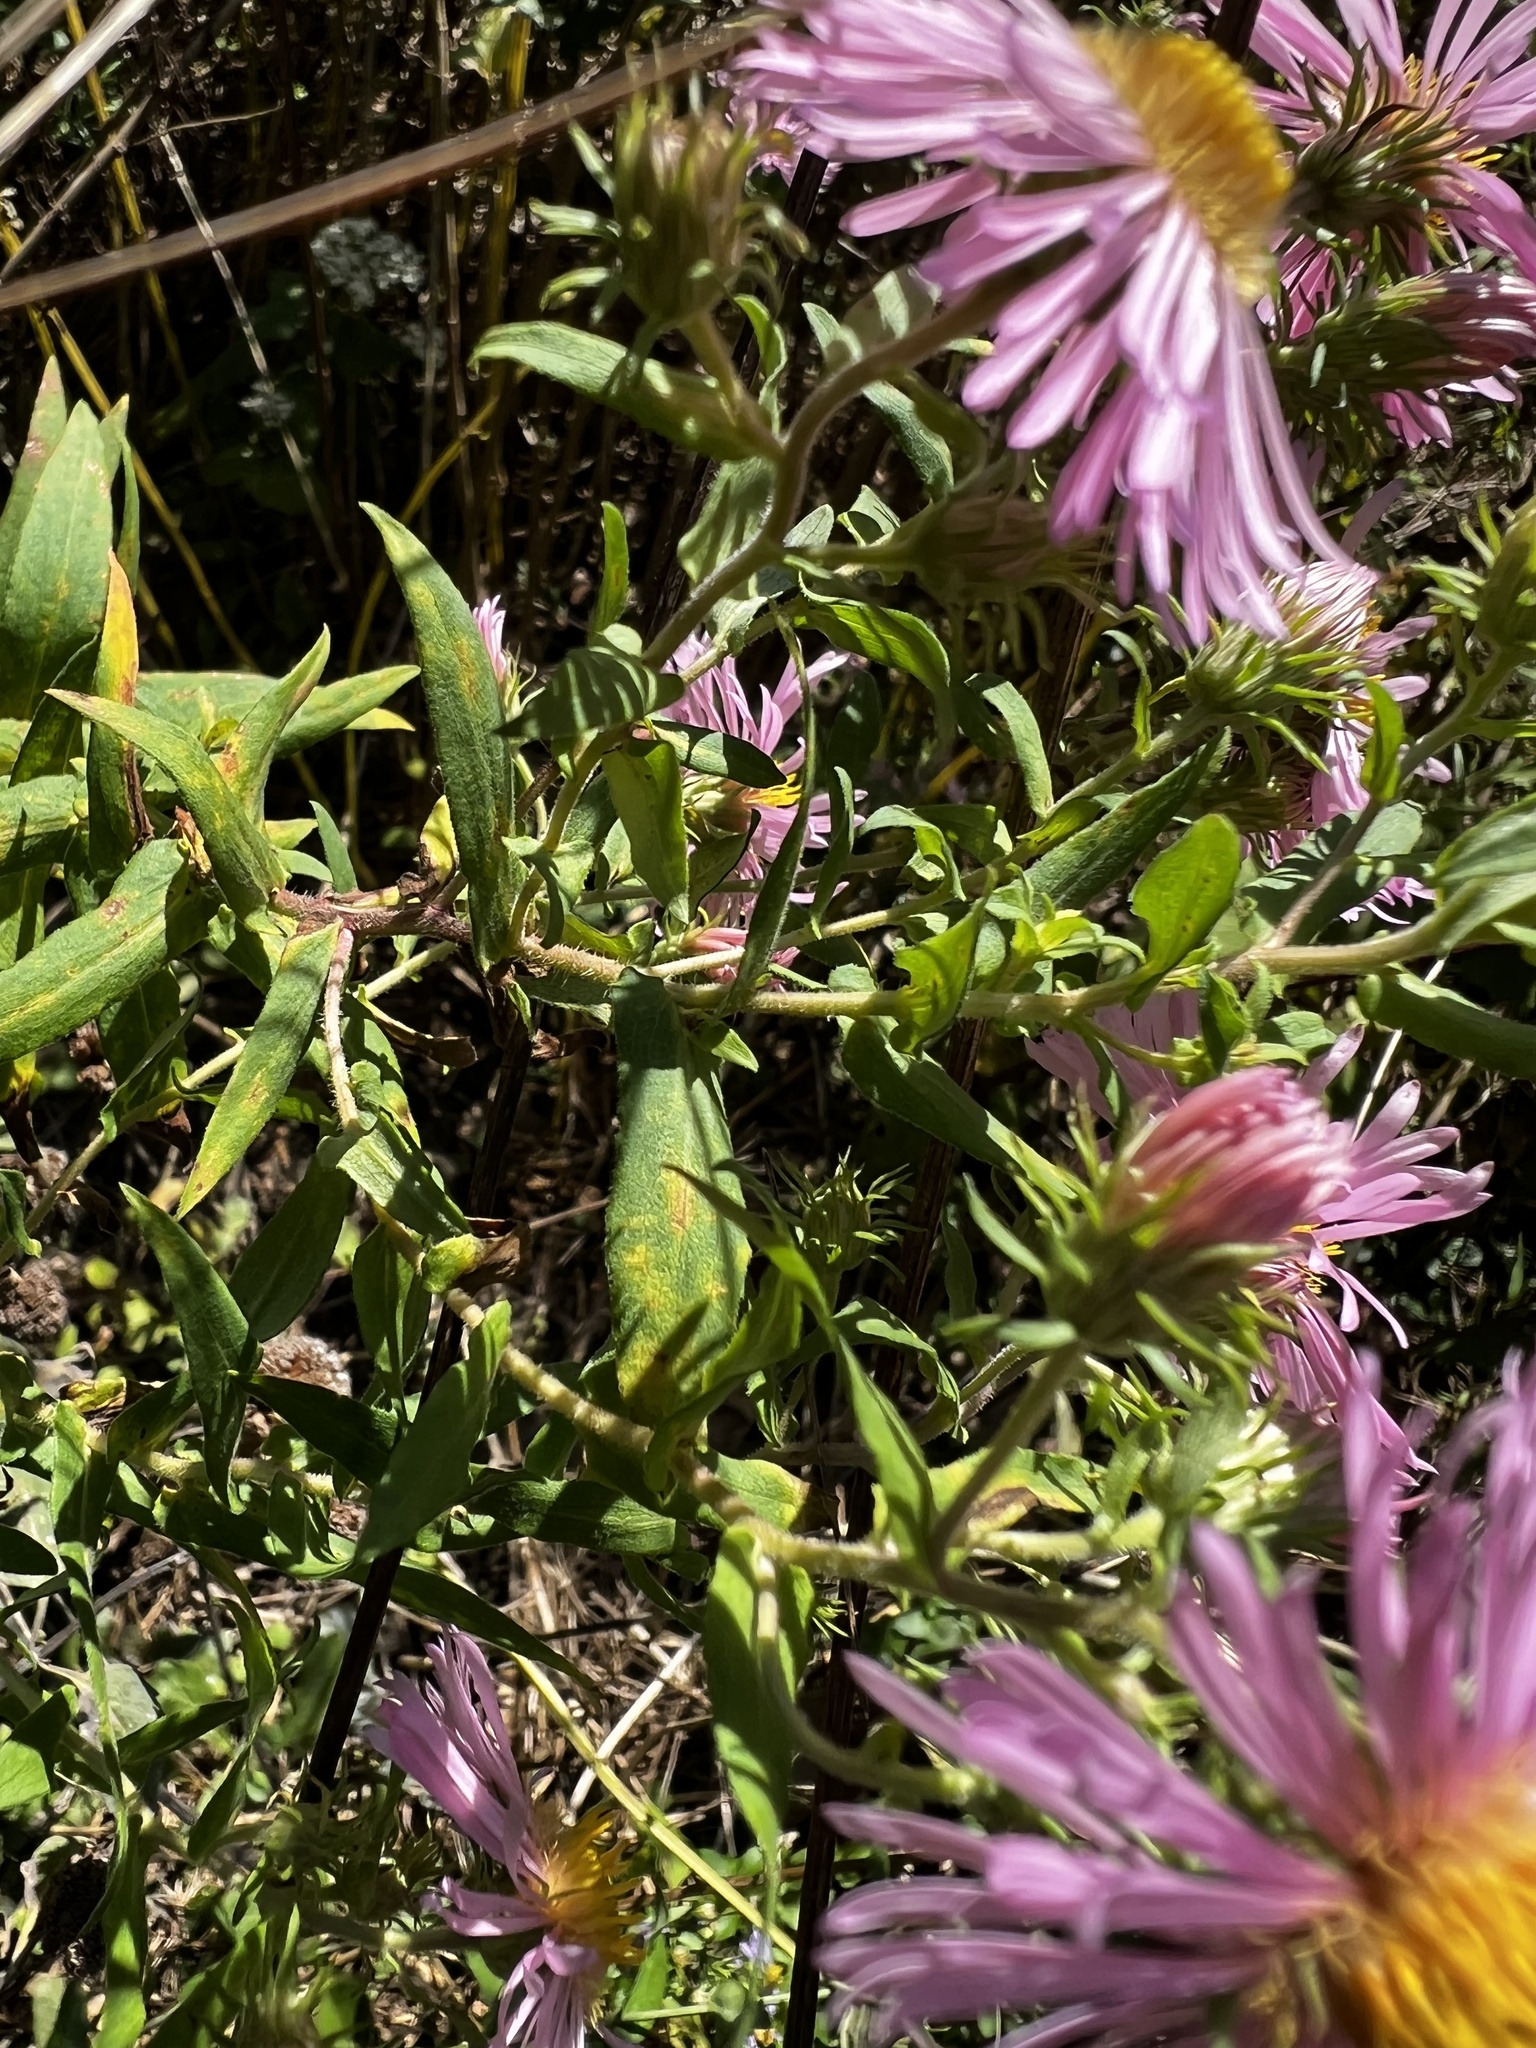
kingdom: Plantae
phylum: Tracheophyta
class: Magnoliopsida
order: Asterales
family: Asteraceae
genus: Symphyotrichum
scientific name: Symphyotrichum novae-angliae
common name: Michaelmas daisy
